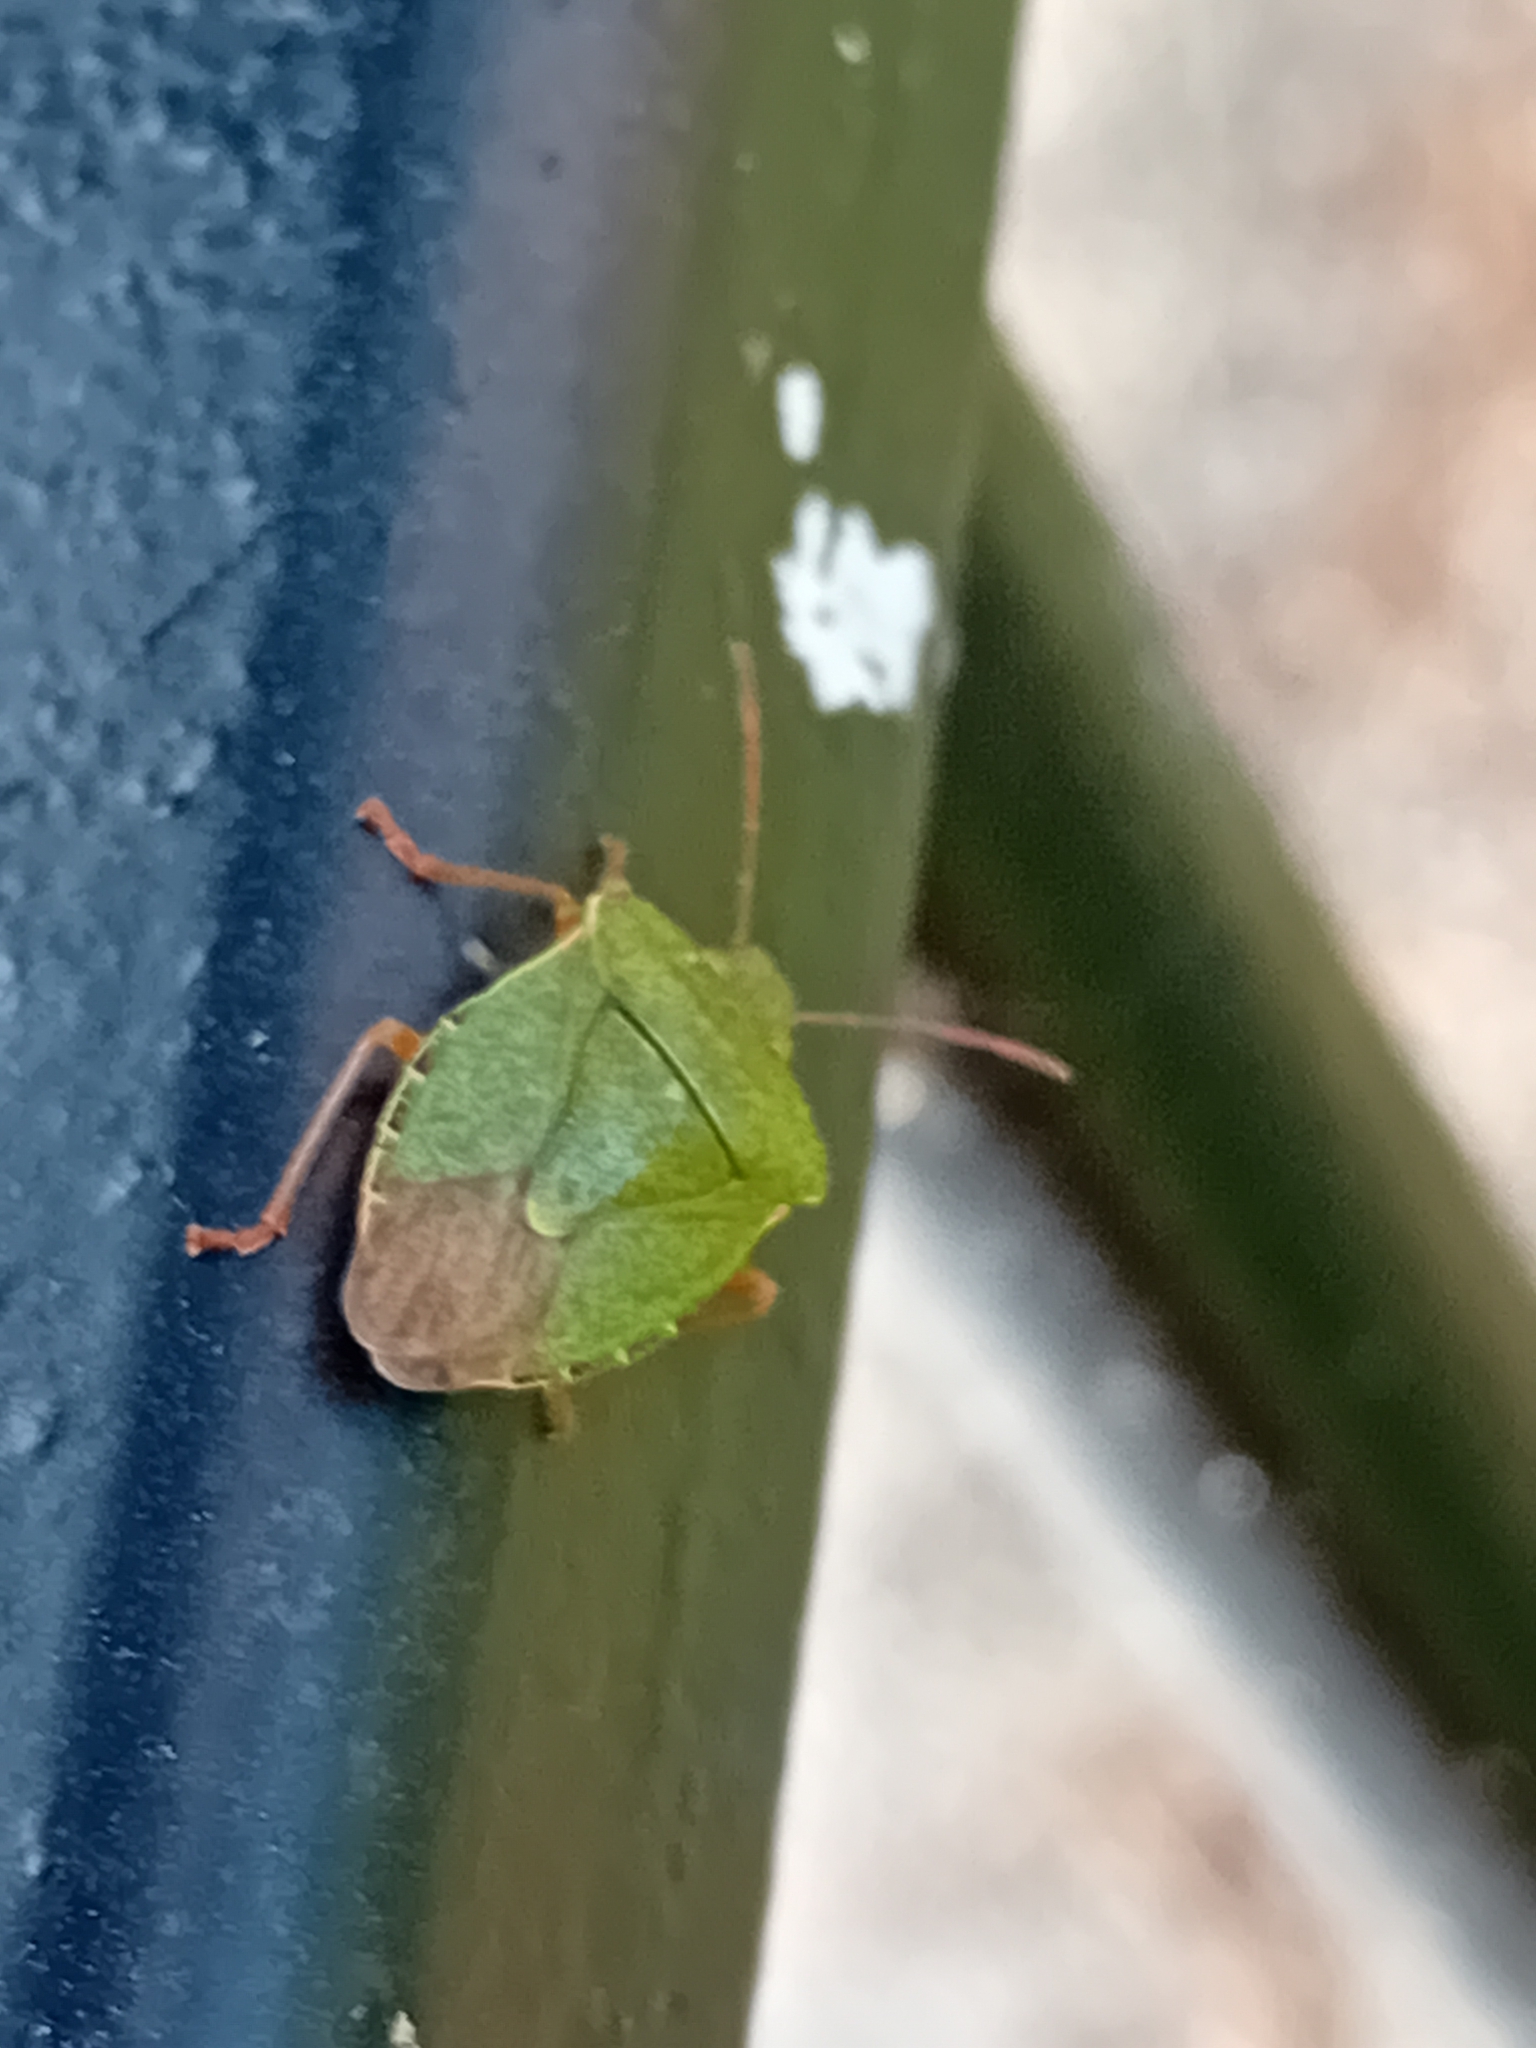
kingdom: Animalia
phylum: Arthropoda
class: Insecta
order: Hemiptera
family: Pentatomidae
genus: Palomena
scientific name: Palomena prasina
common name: Green shieldbug
